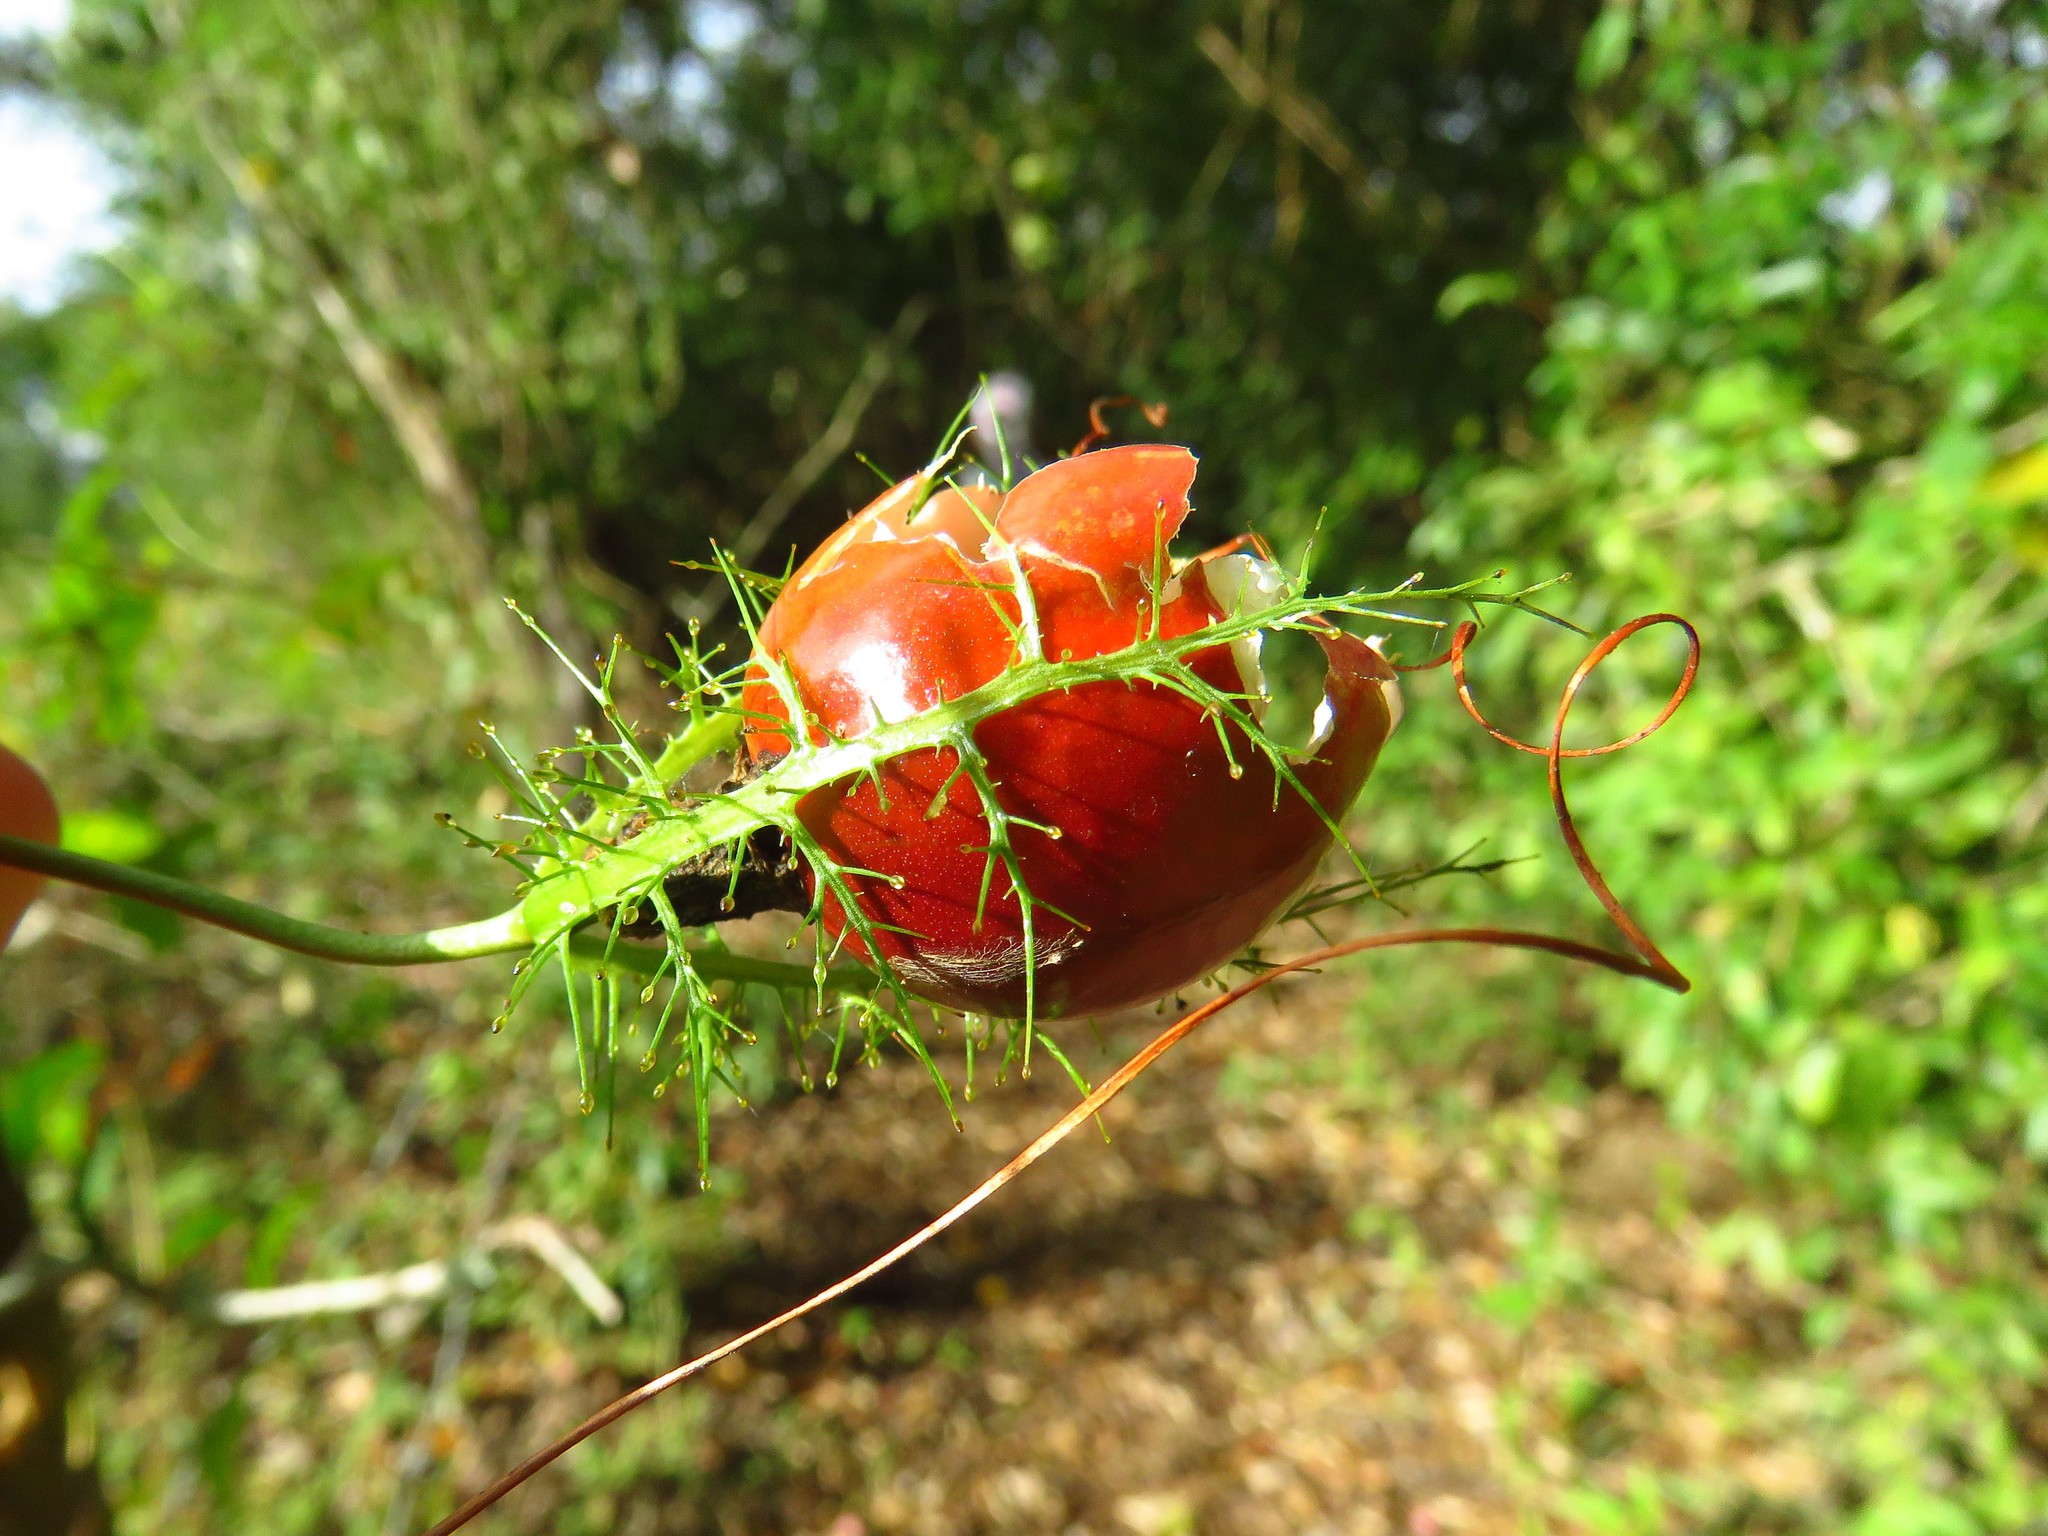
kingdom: Plantae
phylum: Tracheophyta
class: Magnoliopsida
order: Malpighiales
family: Passifloraceae
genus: Passiflora
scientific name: Passiflora ciliata
